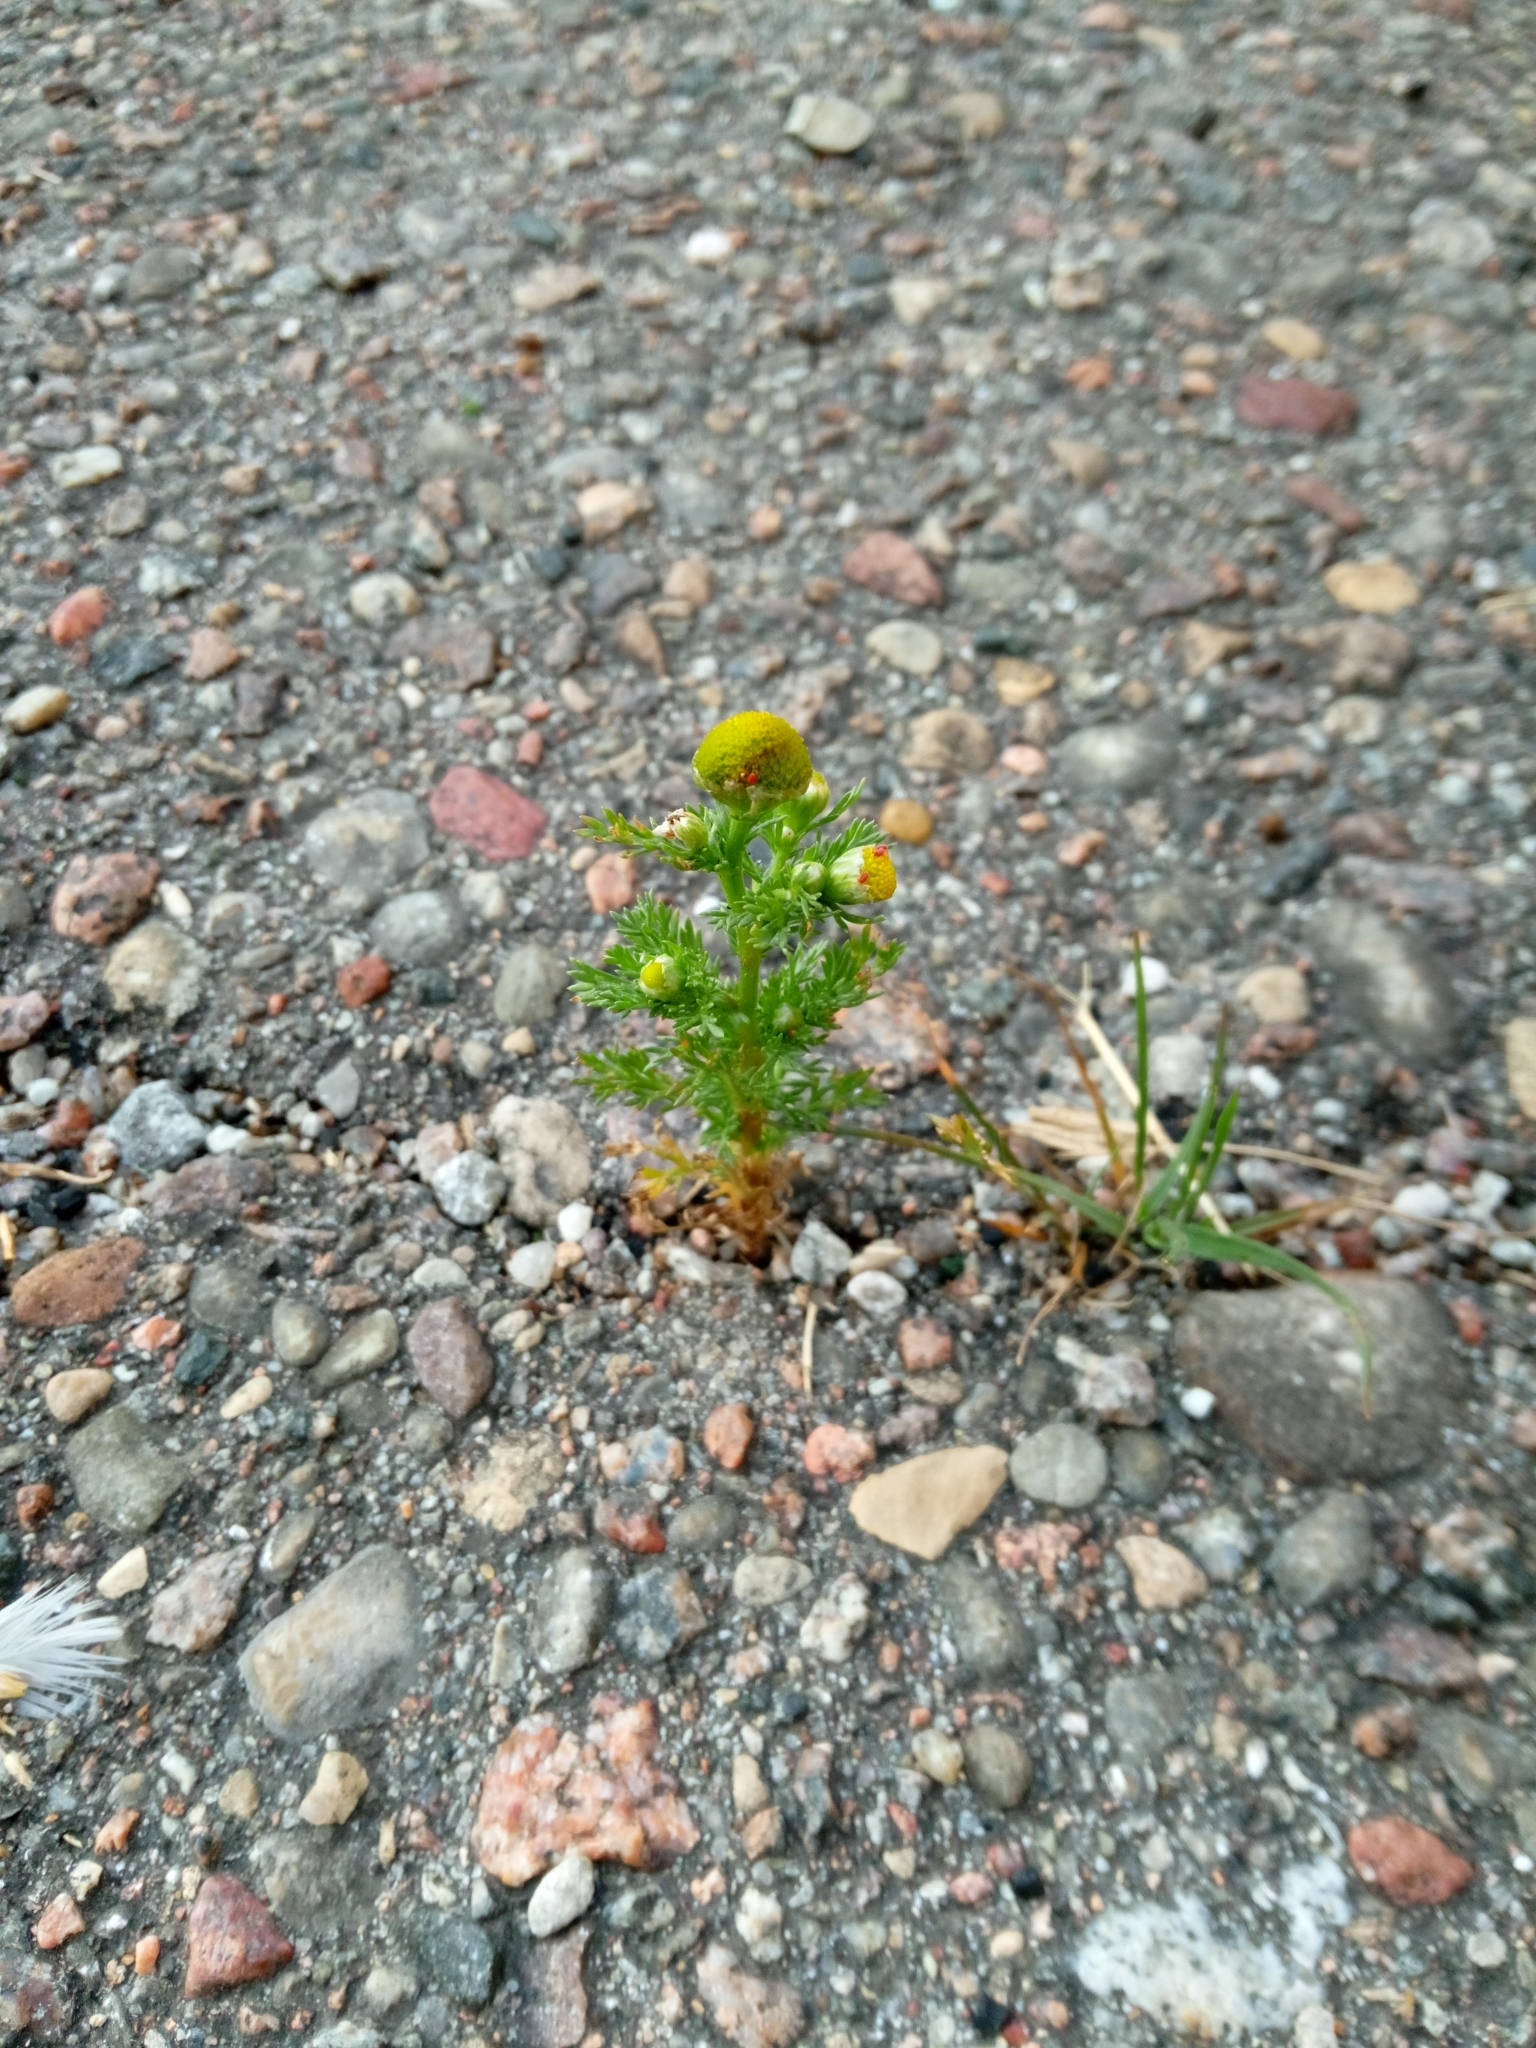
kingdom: Plantae
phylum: Tracheophyta
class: Magnoliopsida
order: Asterales
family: Asteraceae
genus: Matricaria
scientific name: Matricaria discoidea
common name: Disc mayweed
